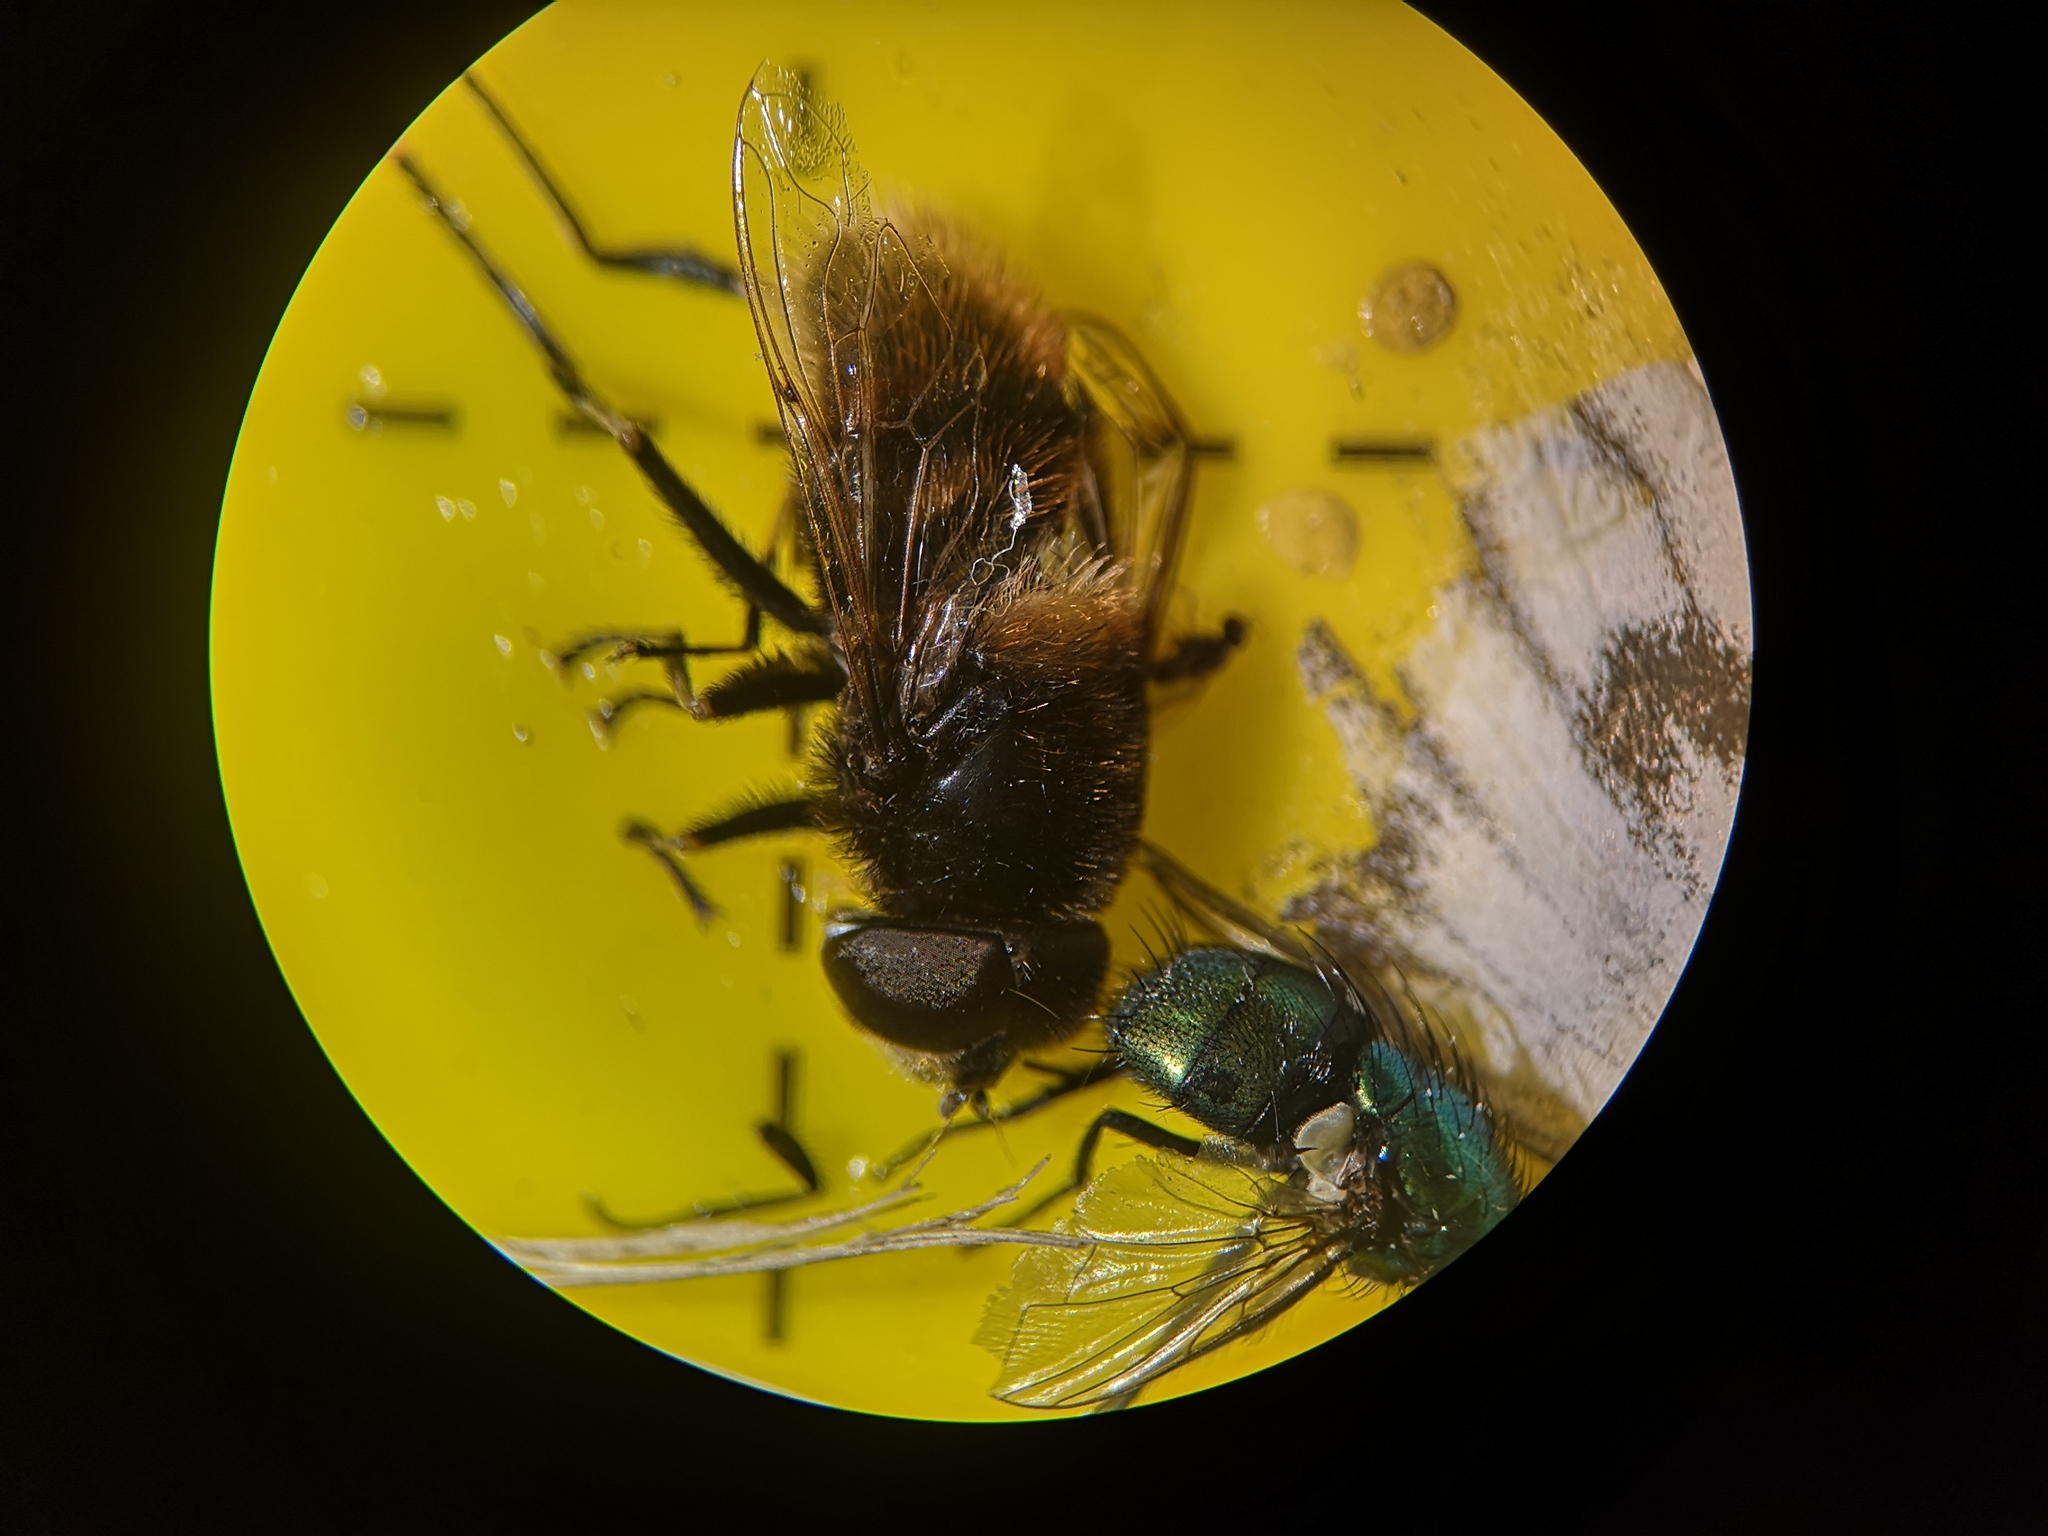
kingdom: Animalia
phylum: Arthropoda
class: Insecta
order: Diptera
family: Syrphidae
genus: Eristalis
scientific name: Eristalis intricaria
